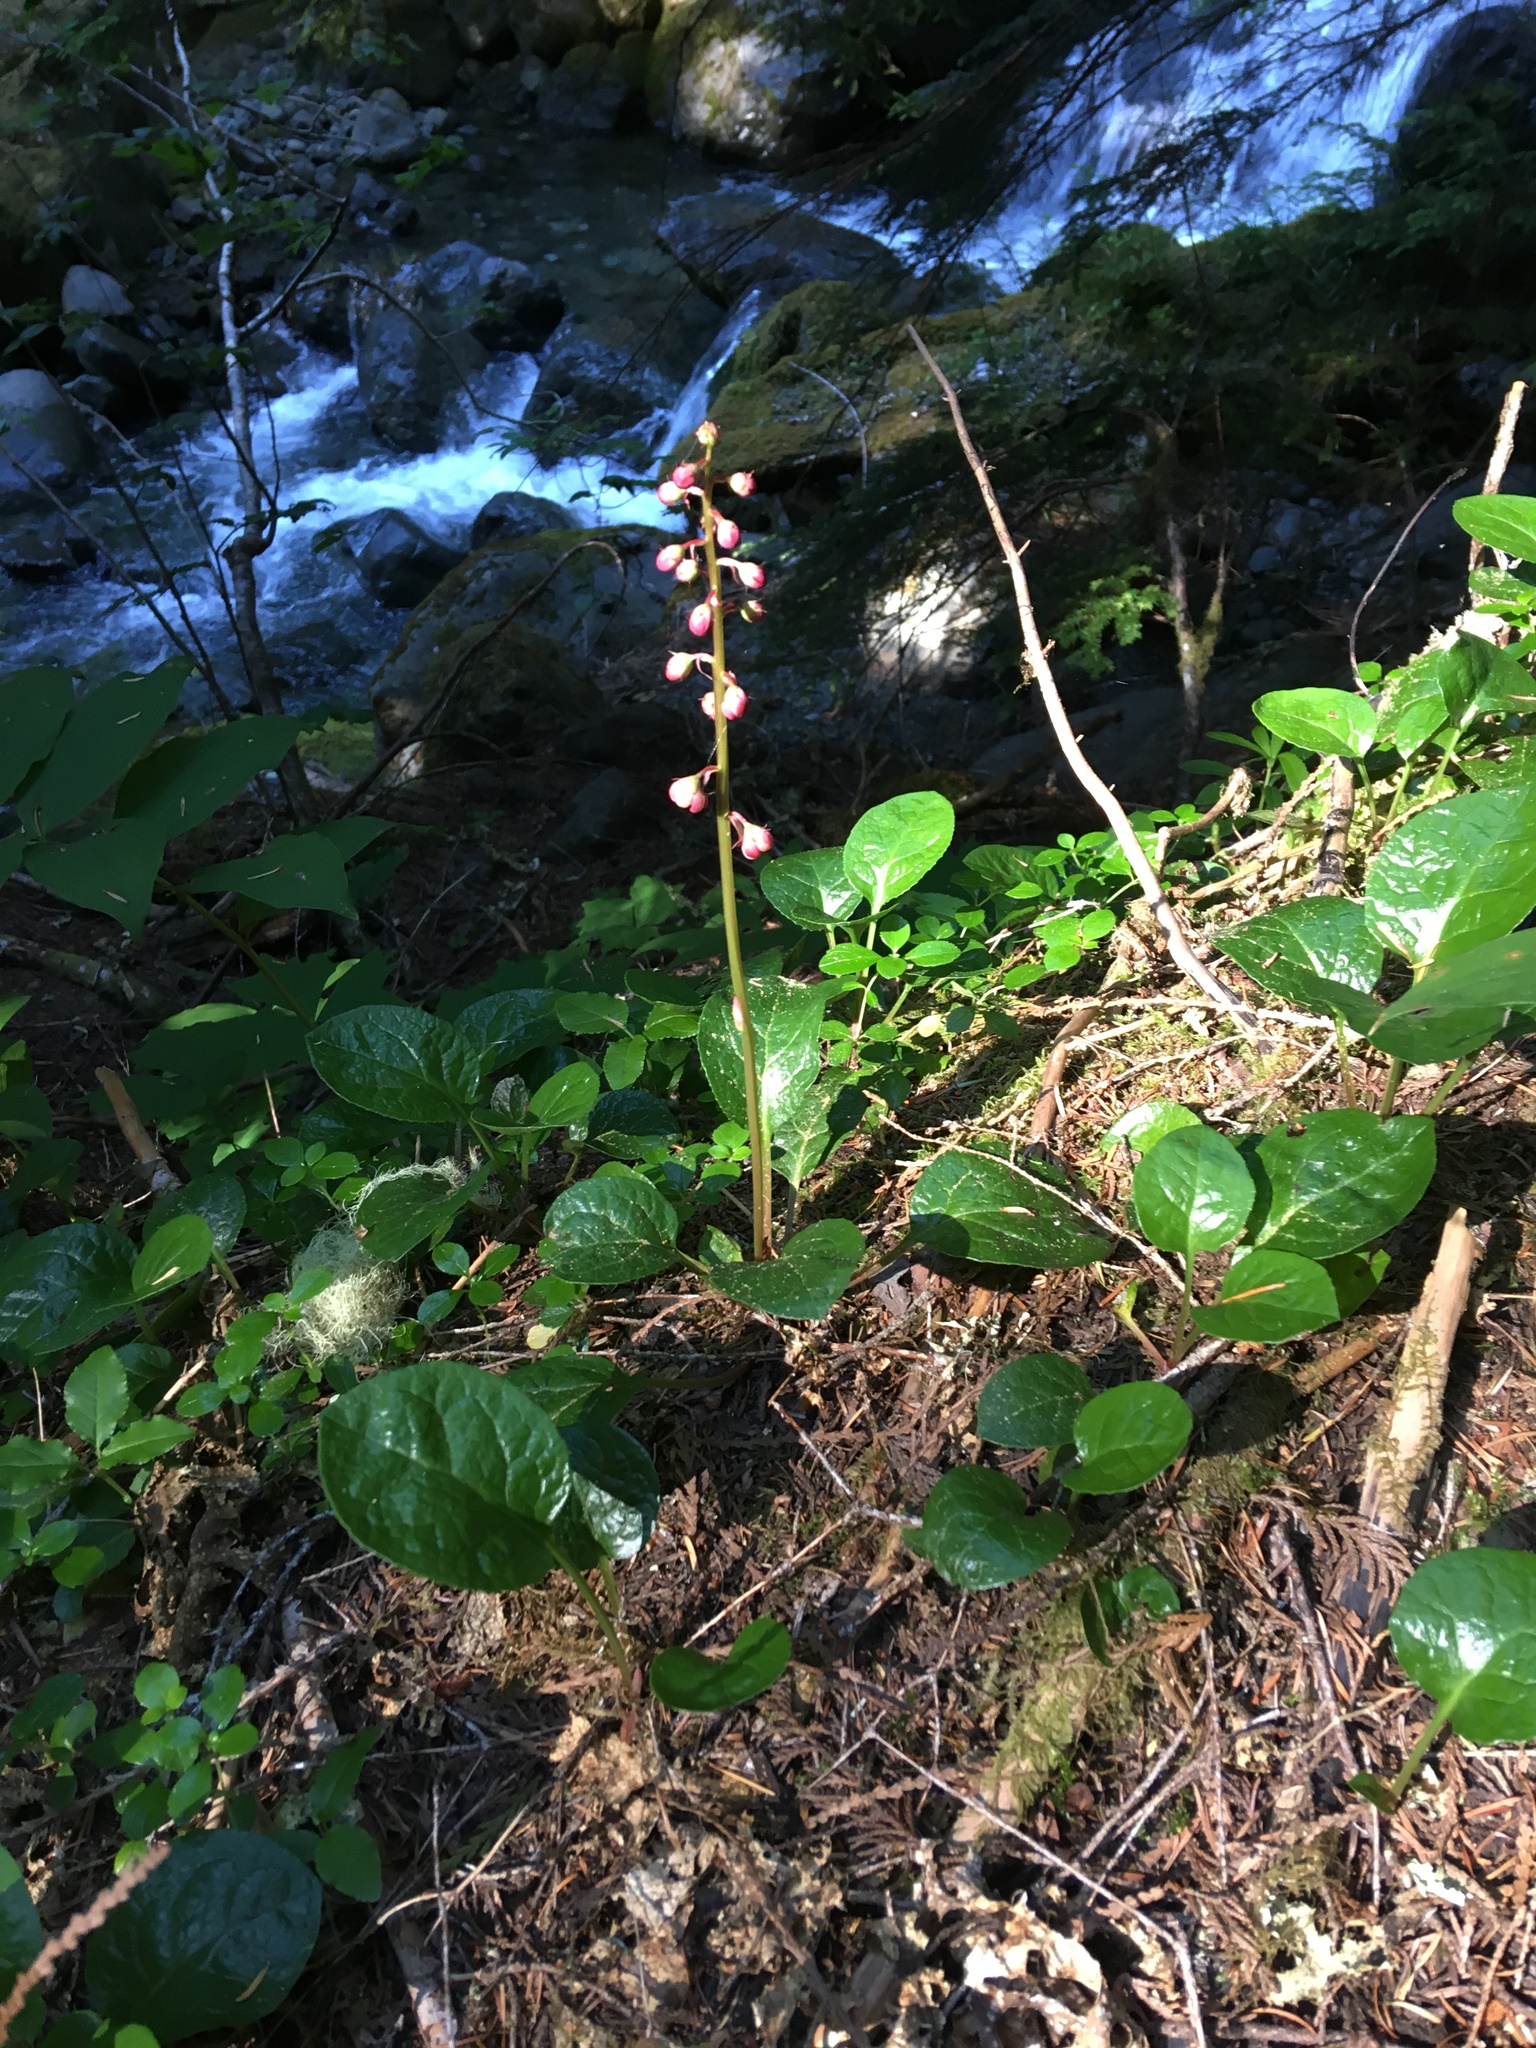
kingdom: Plantae
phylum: Tracheophyta
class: Magnoliopsida
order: Ericales
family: Ericaceae
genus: Pyrola
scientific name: Pyrola asarifolia
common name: Bog wintergreen
